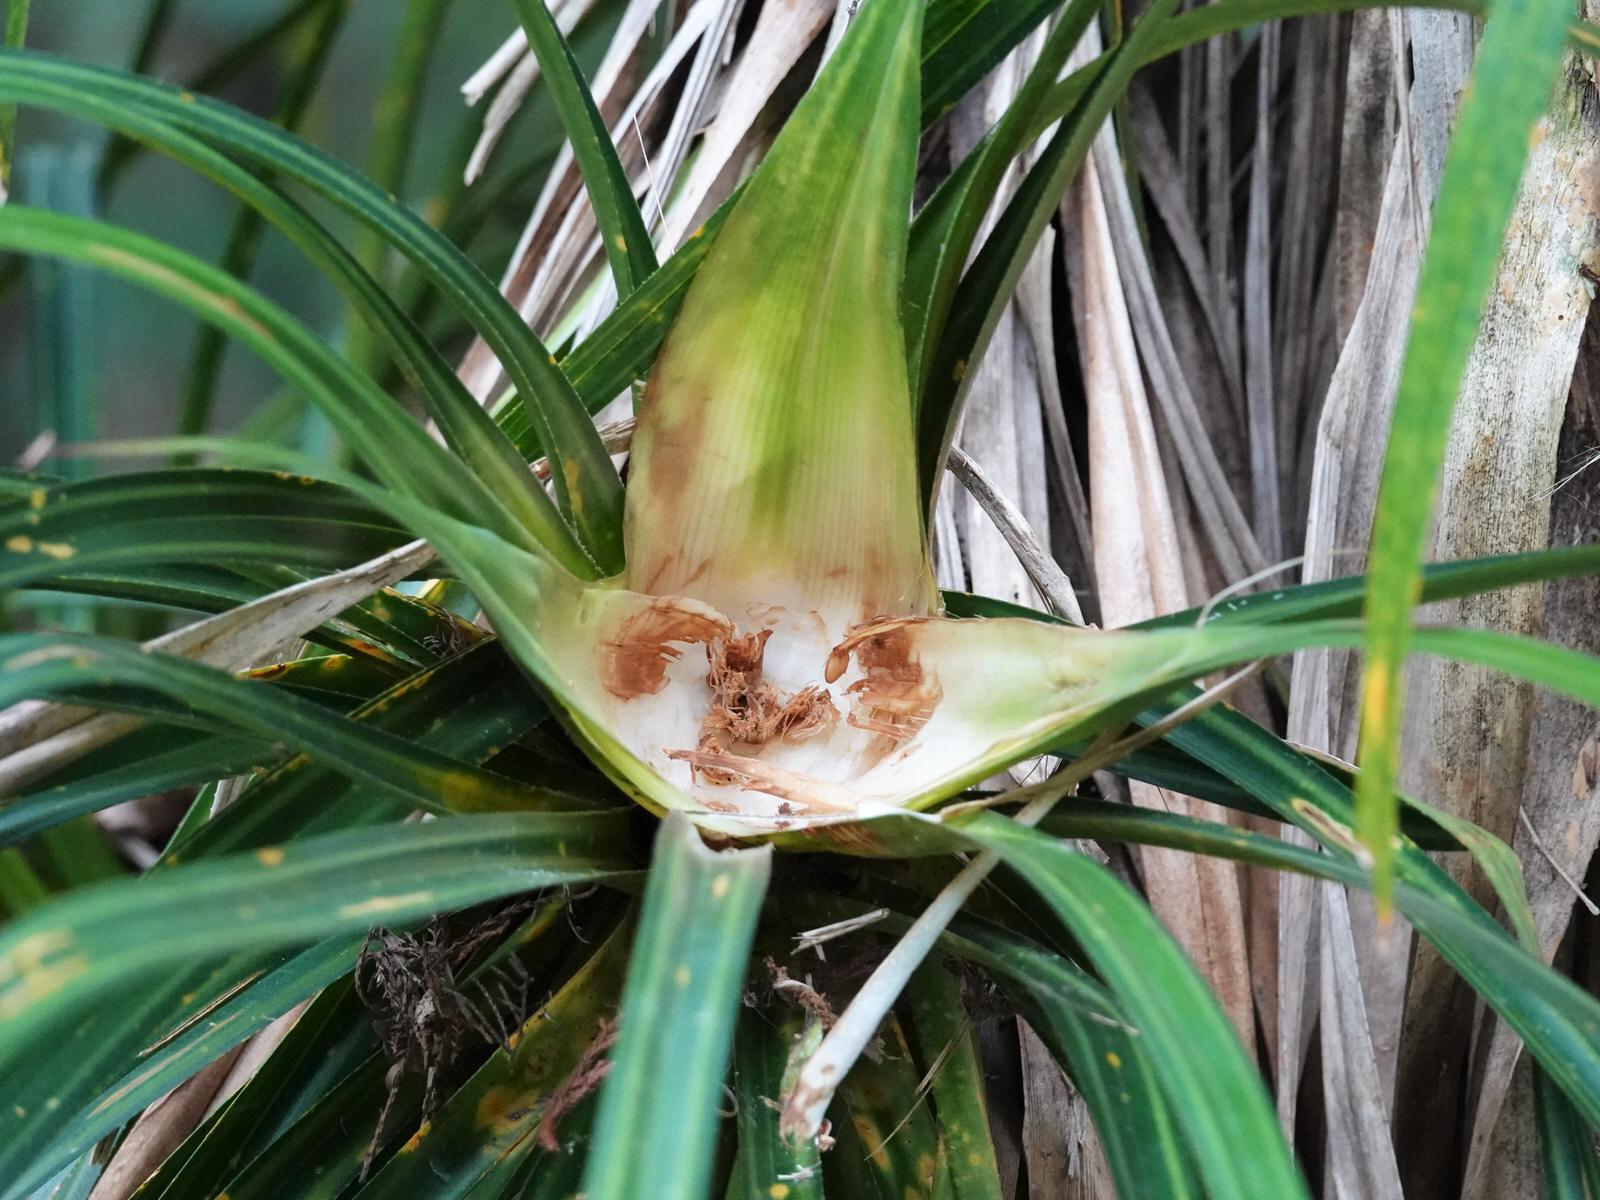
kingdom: Animalia
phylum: Chordata
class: Mammalia
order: Diprotodontia
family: Phalangeridae
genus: Trichosurus
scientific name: Trichosurus vulpecula
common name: Common brushtail
